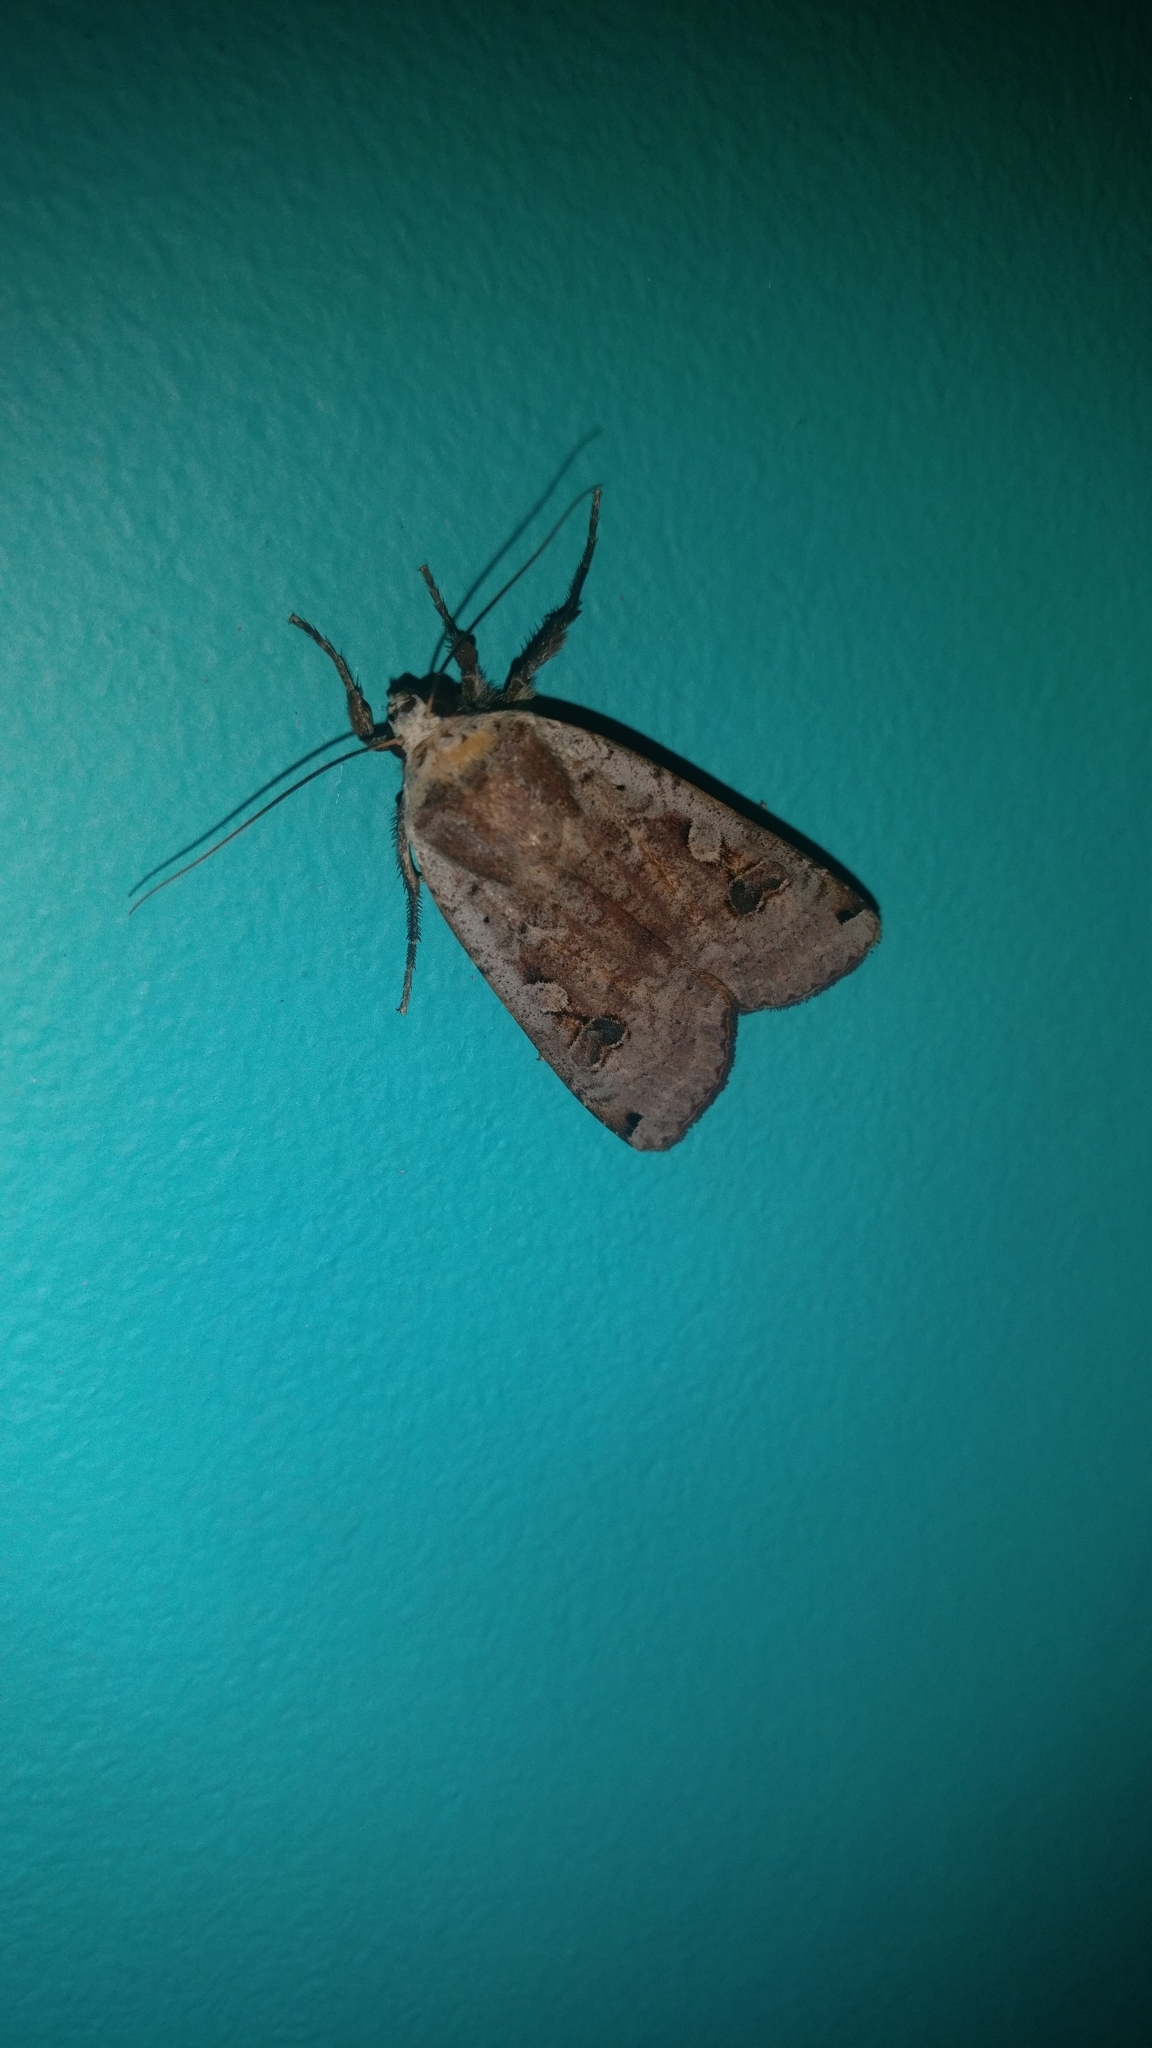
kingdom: Animalia
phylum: Arthropoda
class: Insecta
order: Lepidoptera
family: Noctuidae
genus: Noctua
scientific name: Noctua pronuba
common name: Large yellow underwing
